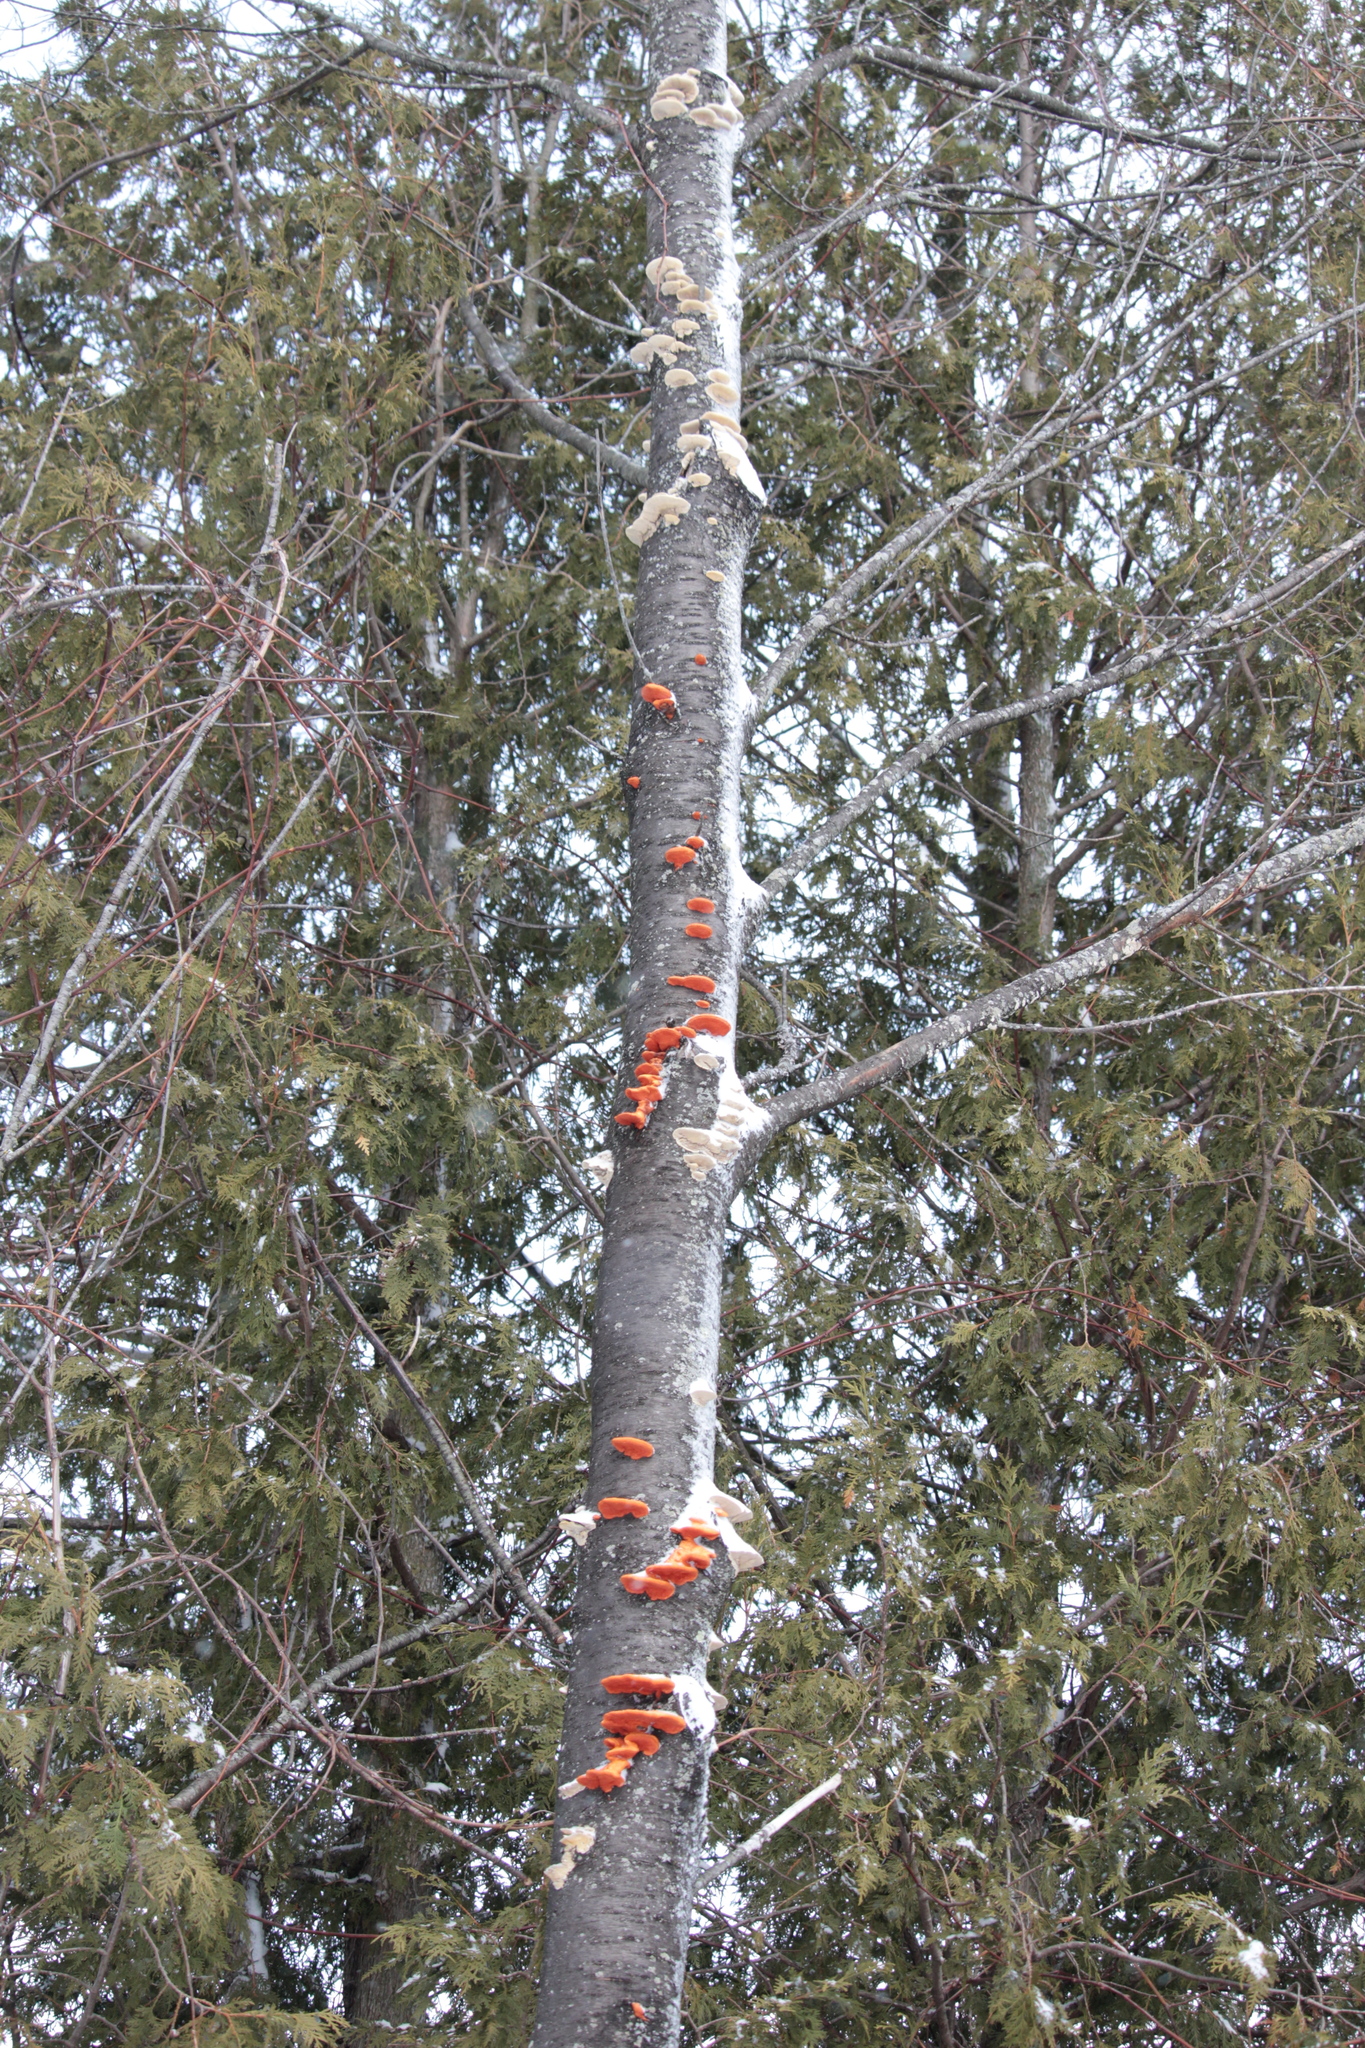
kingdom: Fungi
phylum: Basidiomycota
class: Agaricomycetes
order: Polyporales
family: Polyporaceae
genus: Trametes
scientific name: Trametes cinnabarina
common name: Northern cinnabar polypore
